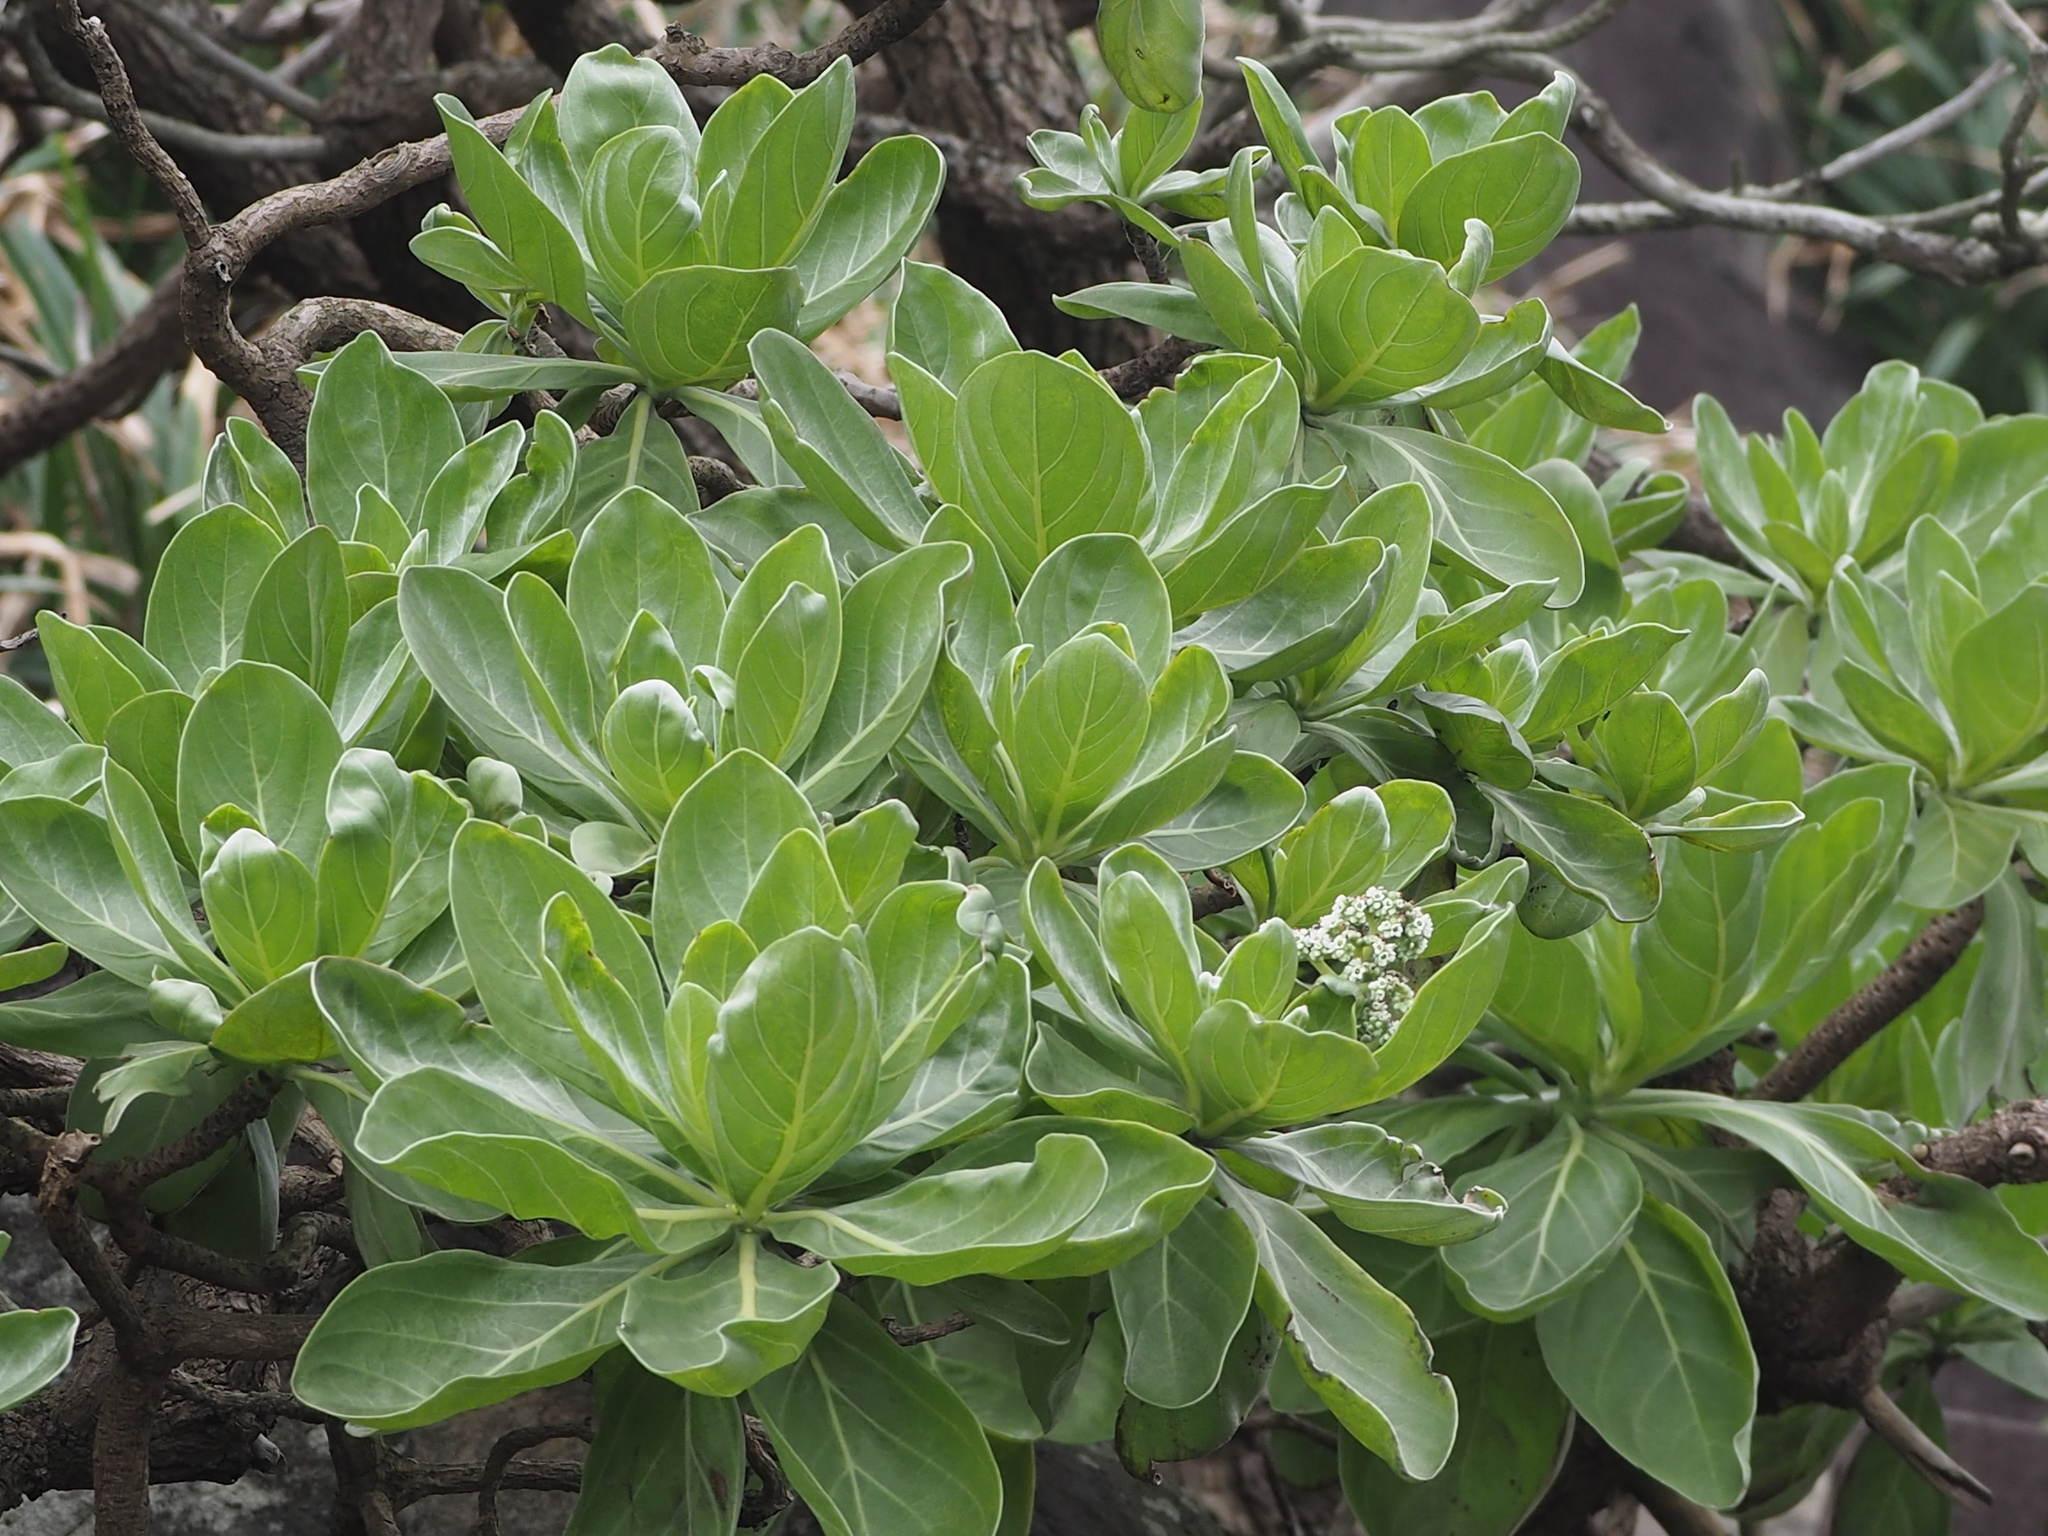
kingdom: Plantae
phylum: Tracheophyta
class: Magnoliopsida
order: Boraginales
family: Heliotropiaceae
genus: Heliotropium
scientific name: Heliotropium velutinum
